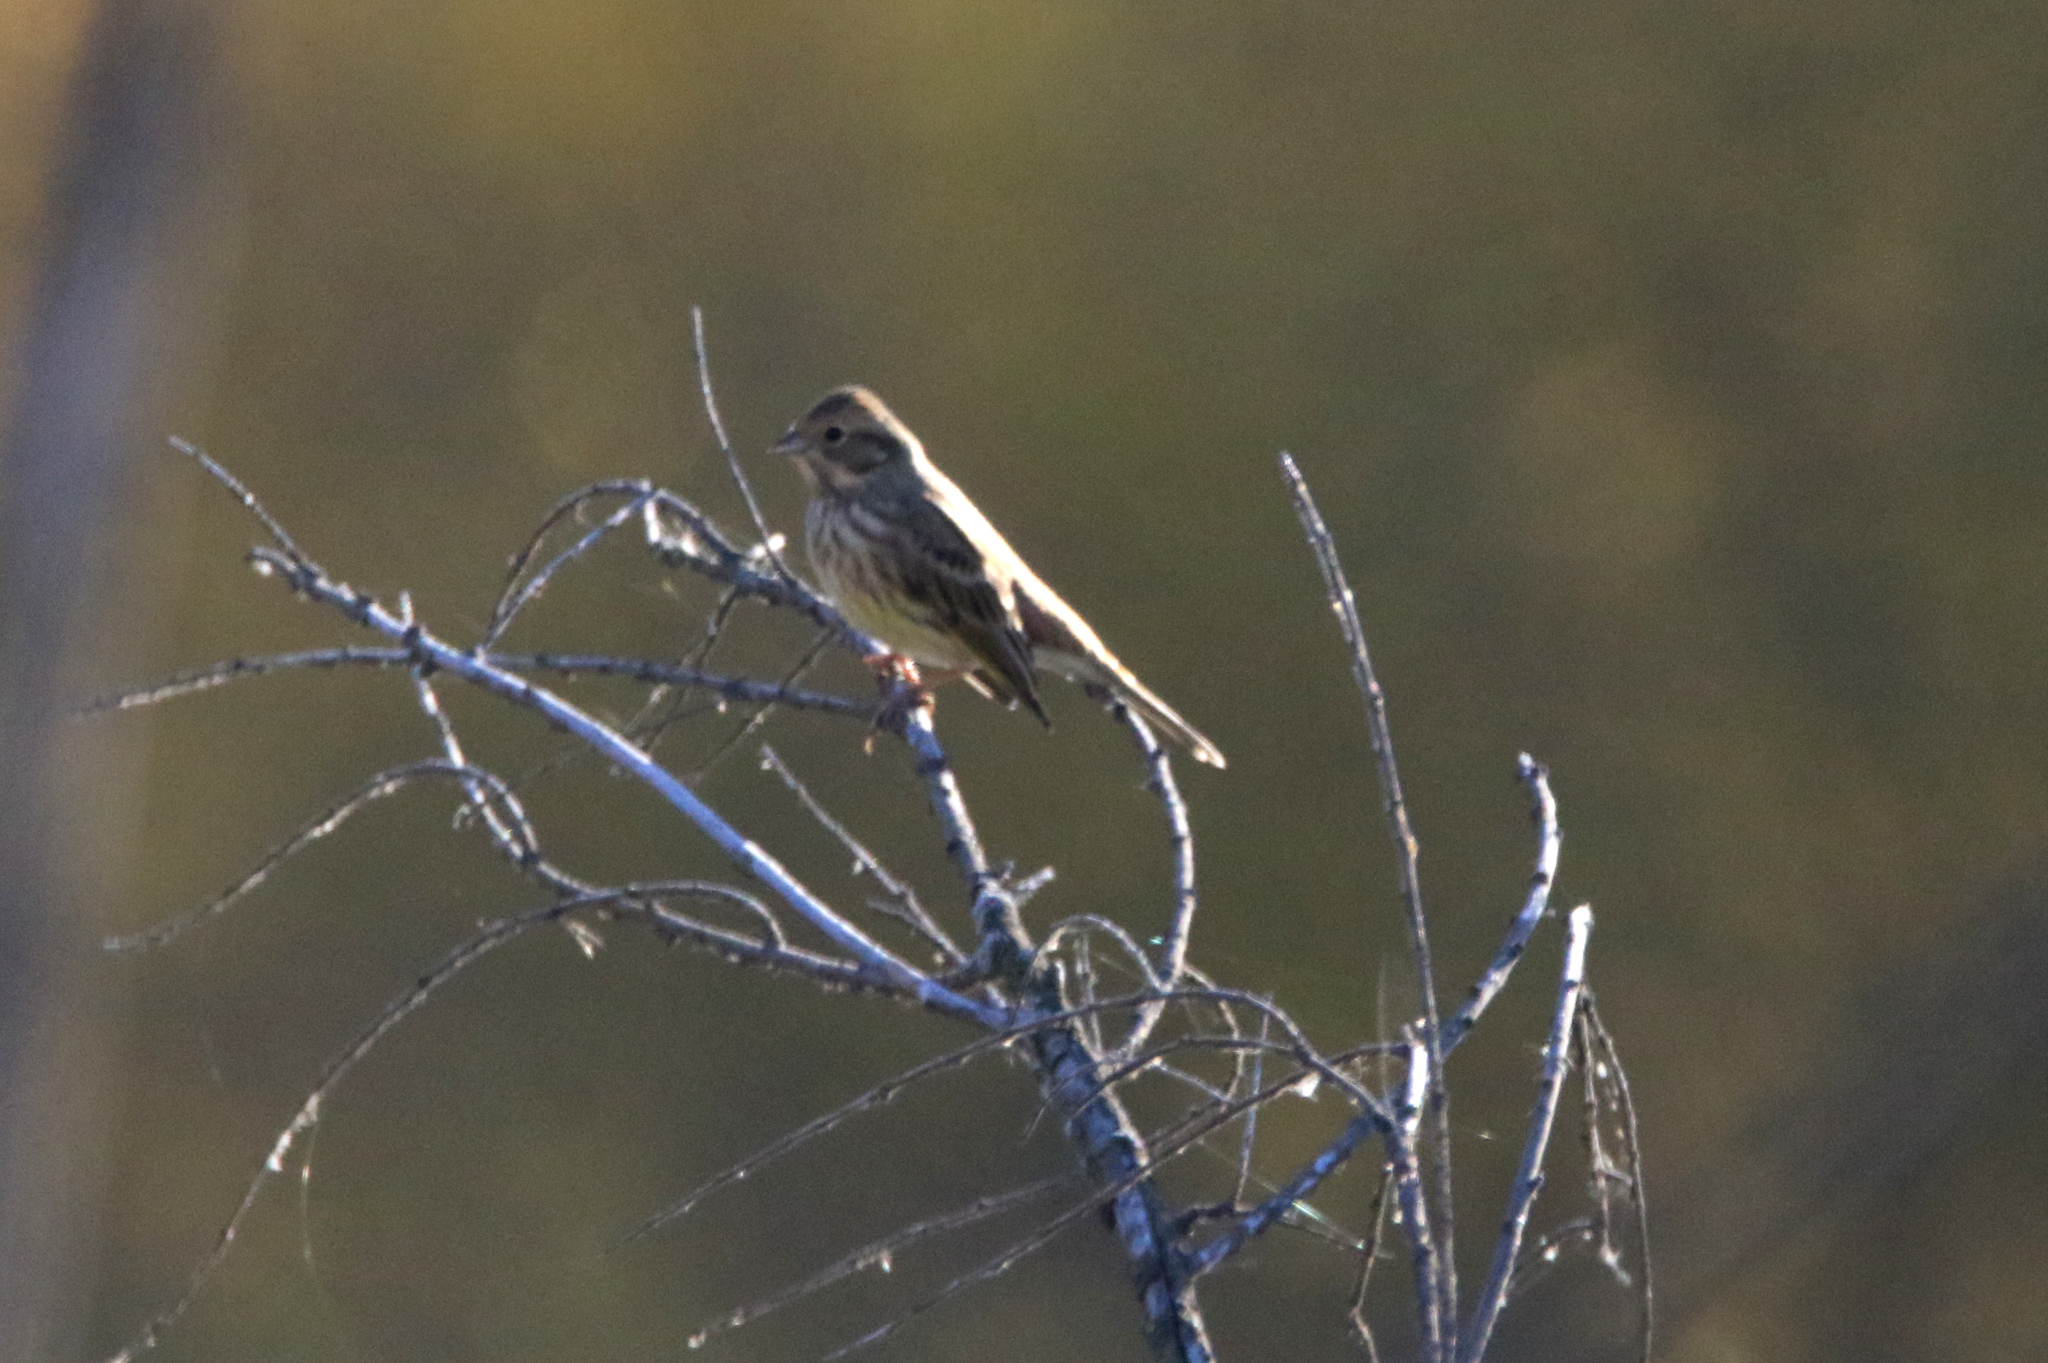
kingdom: Animalia
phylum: Chordata
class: Aves
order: Passeriformes
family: Emberizidae
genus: Emberiza
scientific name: Emberiza citrinella
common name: Yellowhammer
